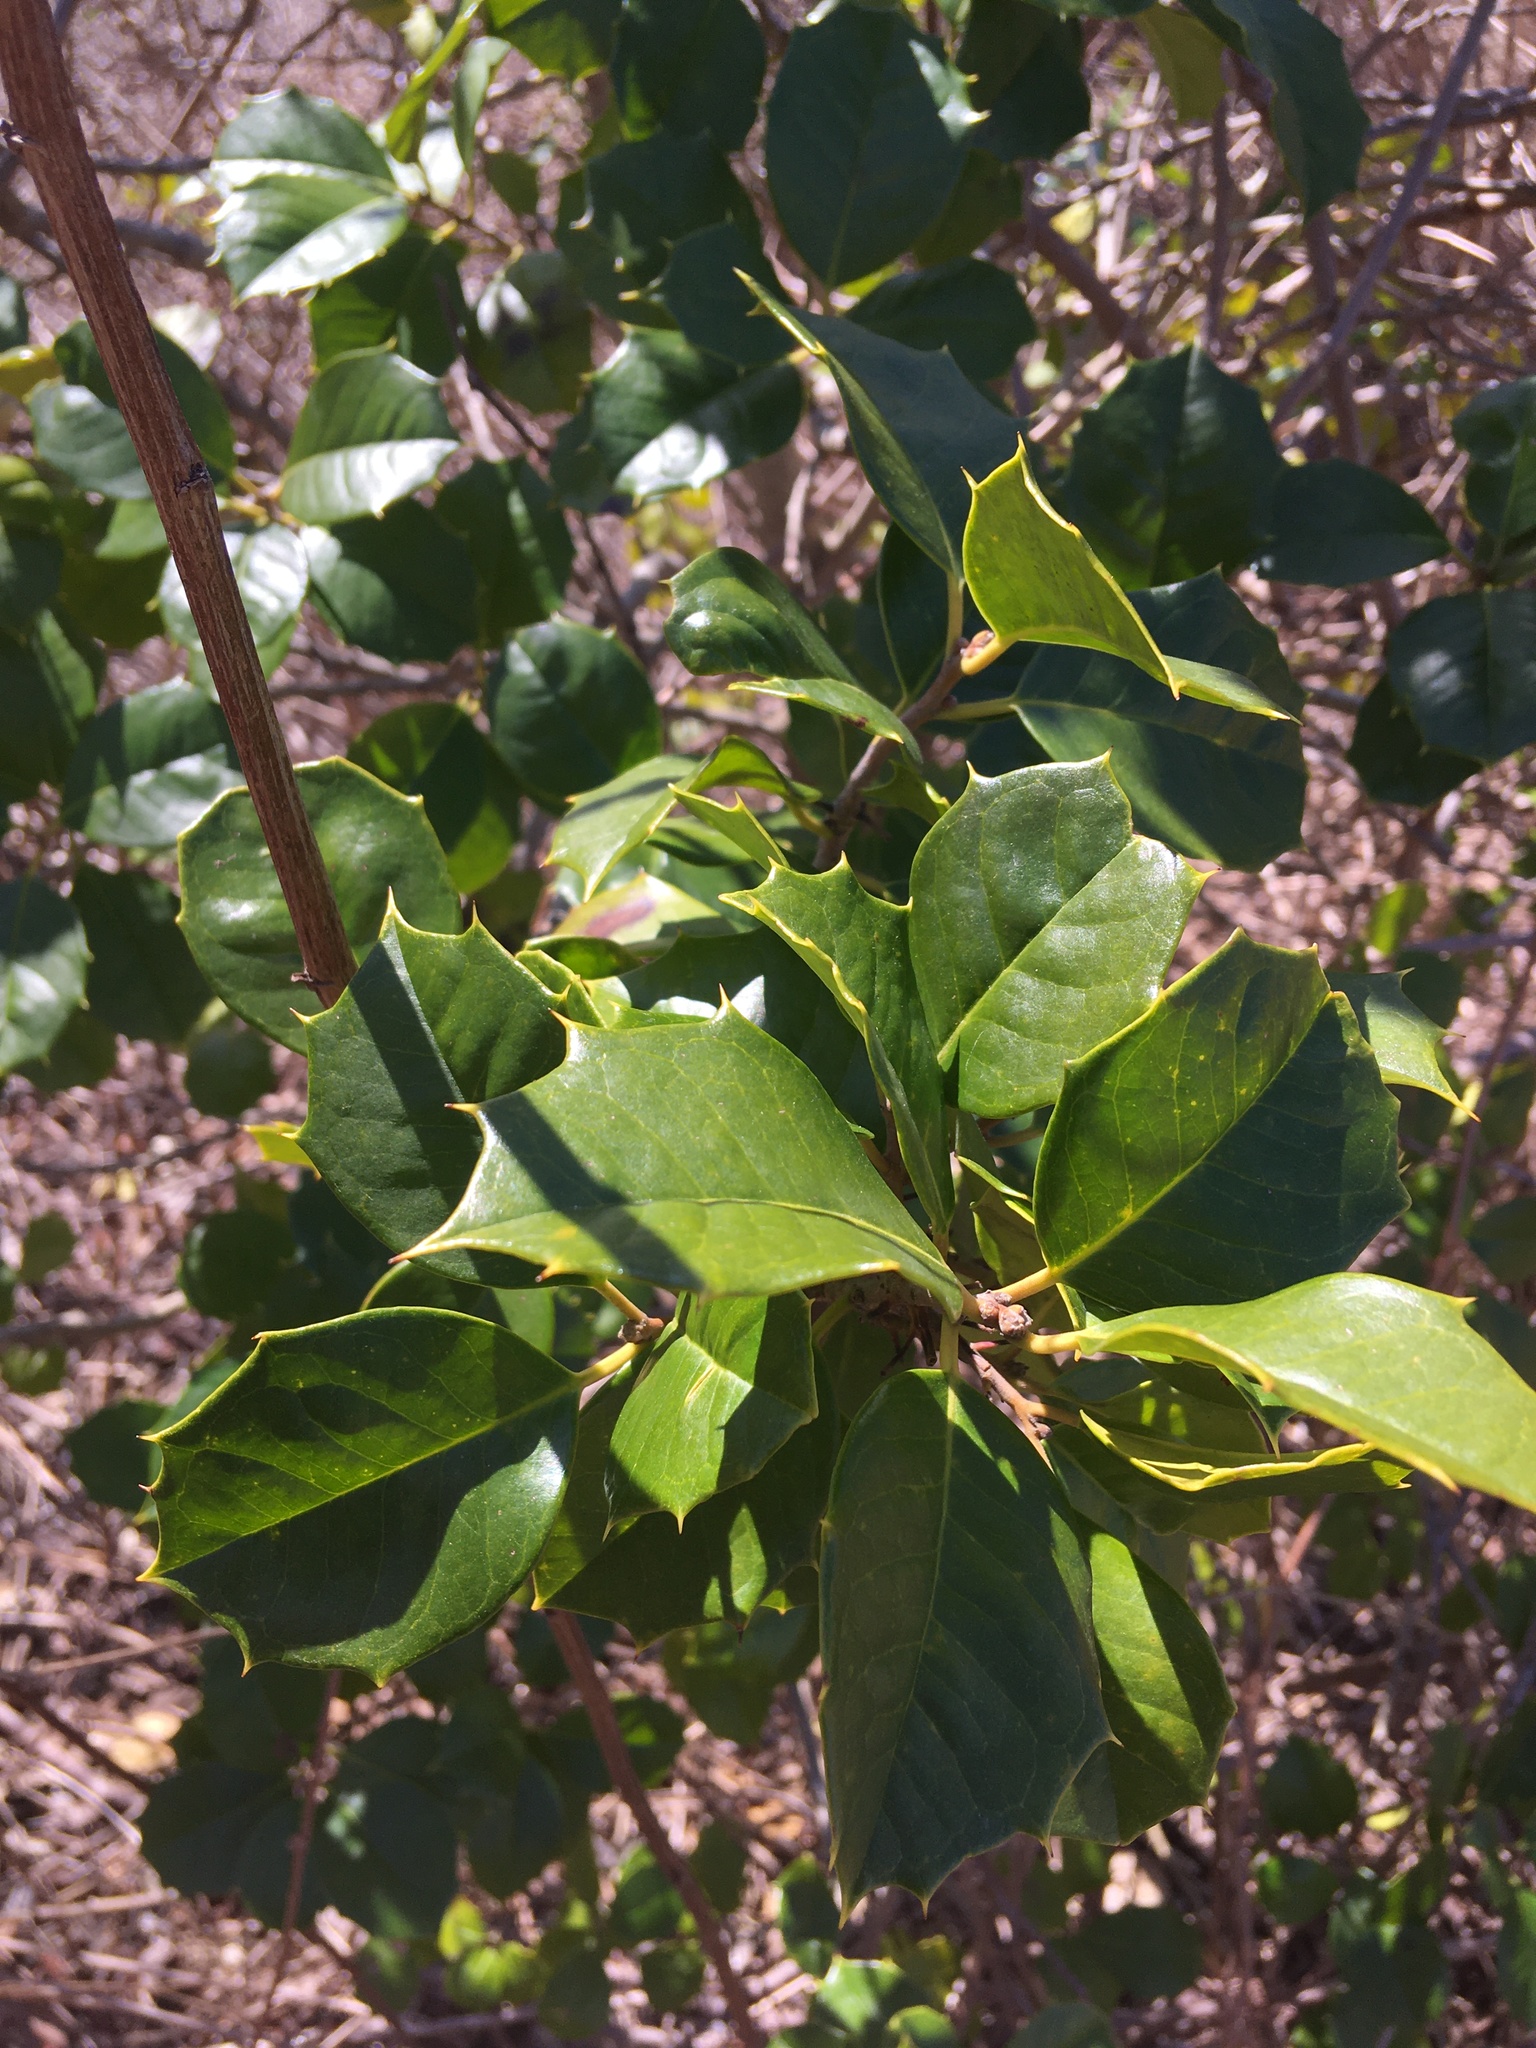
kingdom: Plantae
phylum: Tracheophyta
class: Magnoliopsida
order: Aquifoliales
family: Aquifoliaceae
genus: Ilex
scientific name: Ilex opaca
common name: American holly
